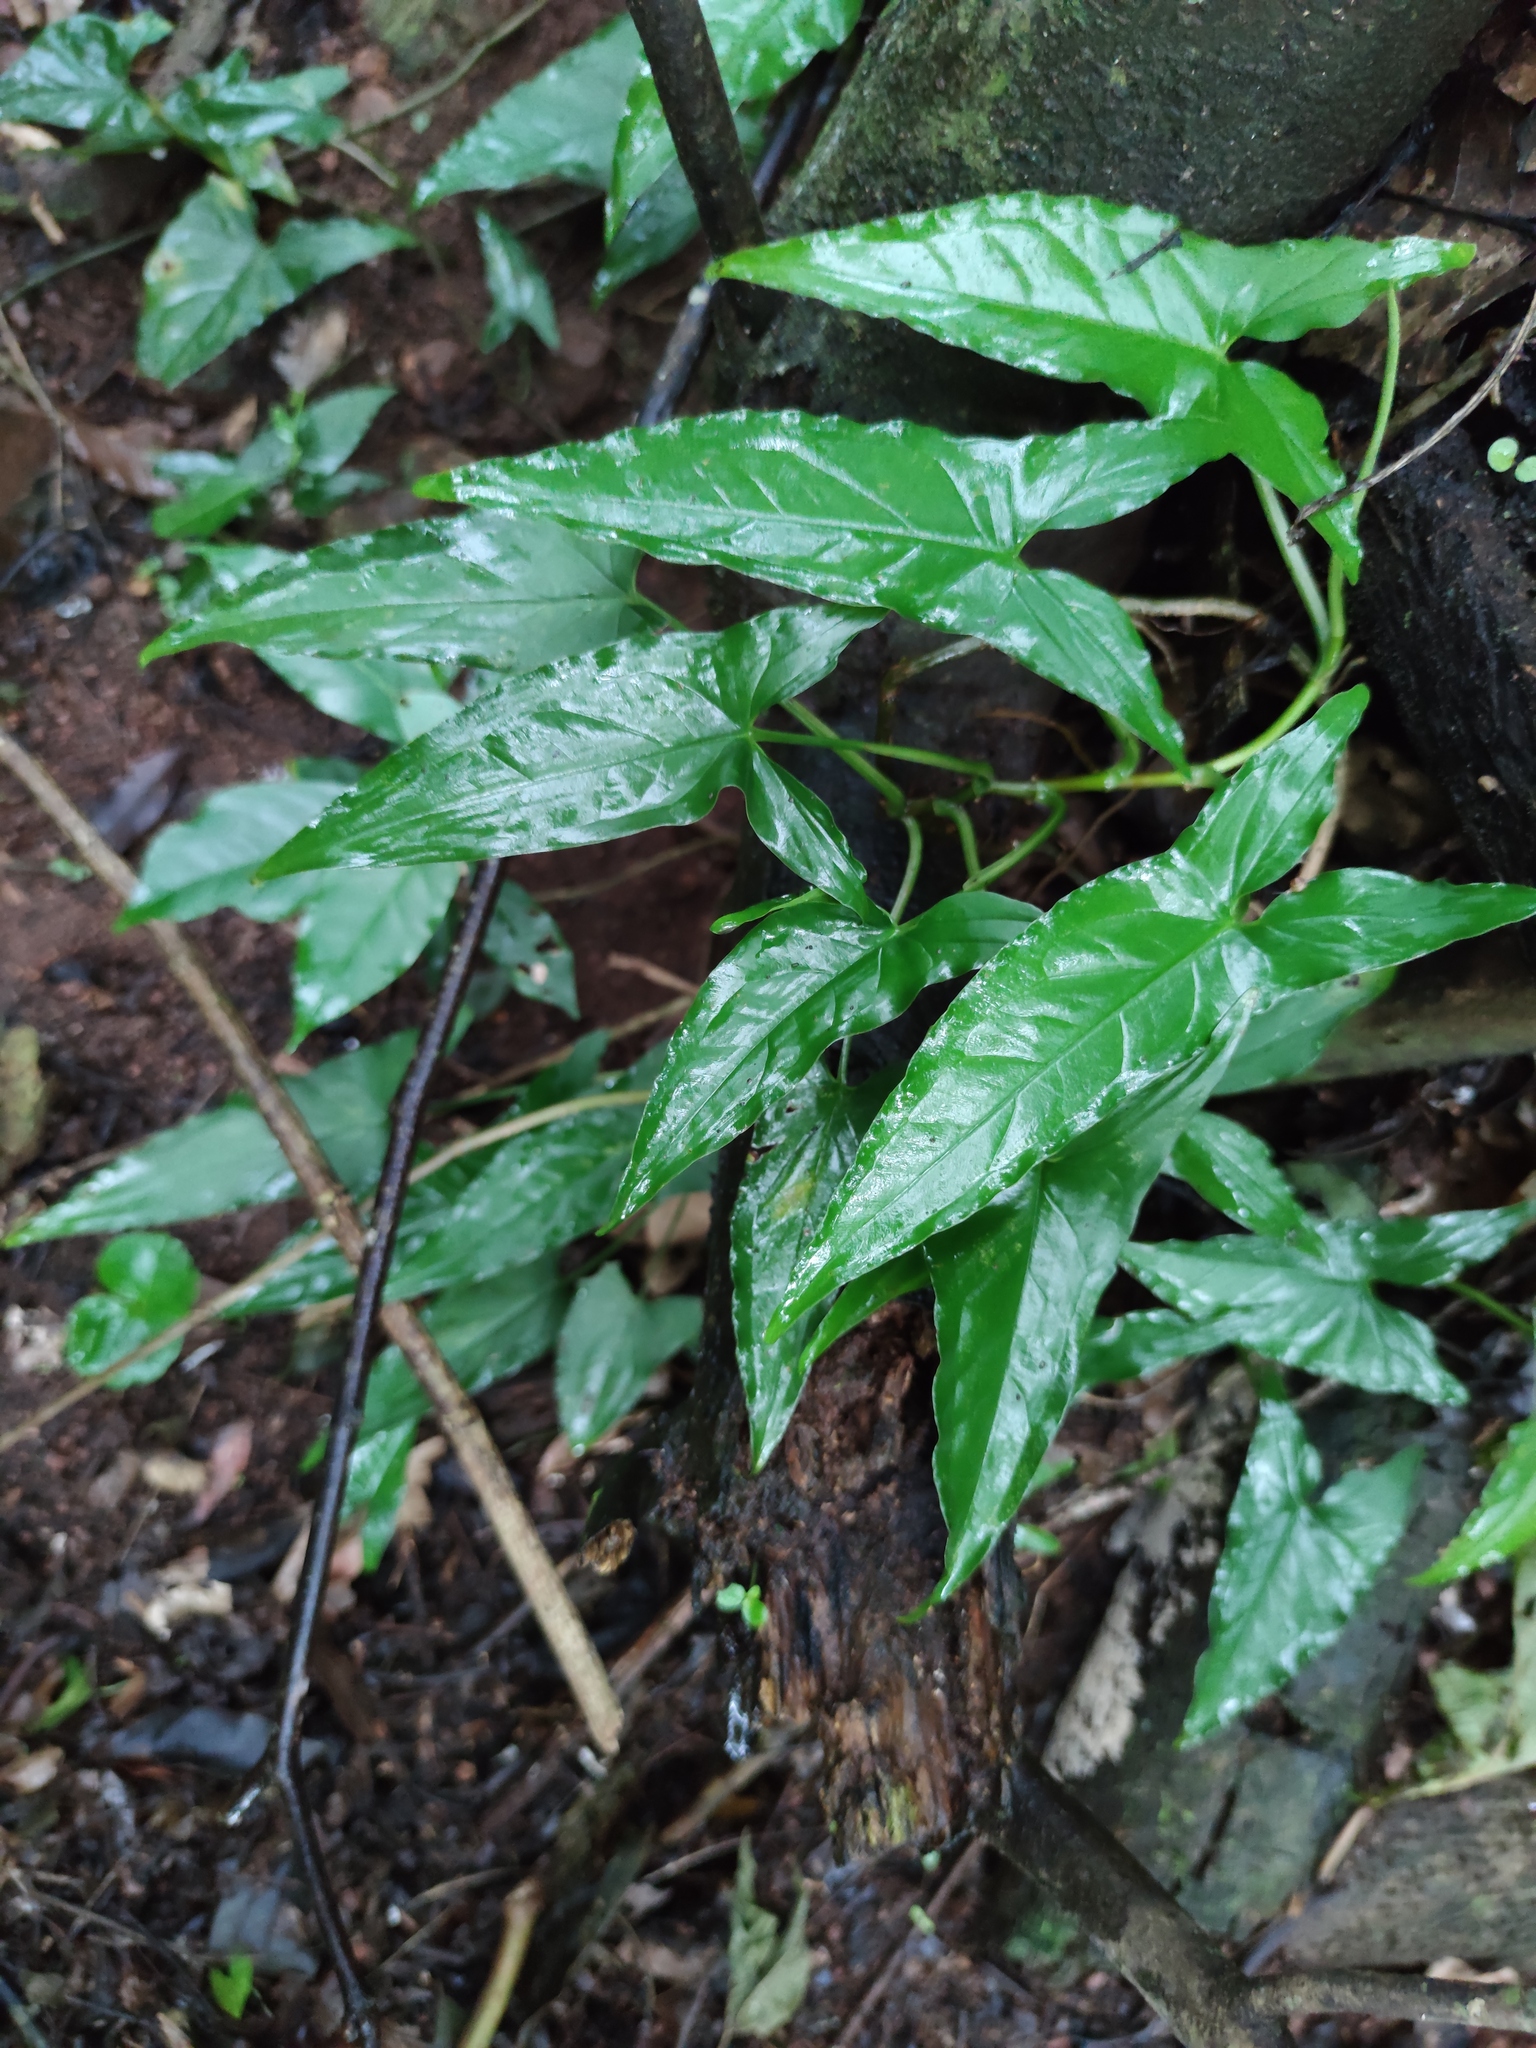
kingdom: Plantae
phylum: Tracheophyta
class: Liliopsida
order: Alismatales
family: Araceae
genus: Syngonium
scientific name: Syngonium podophyllum
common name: American evergreen
